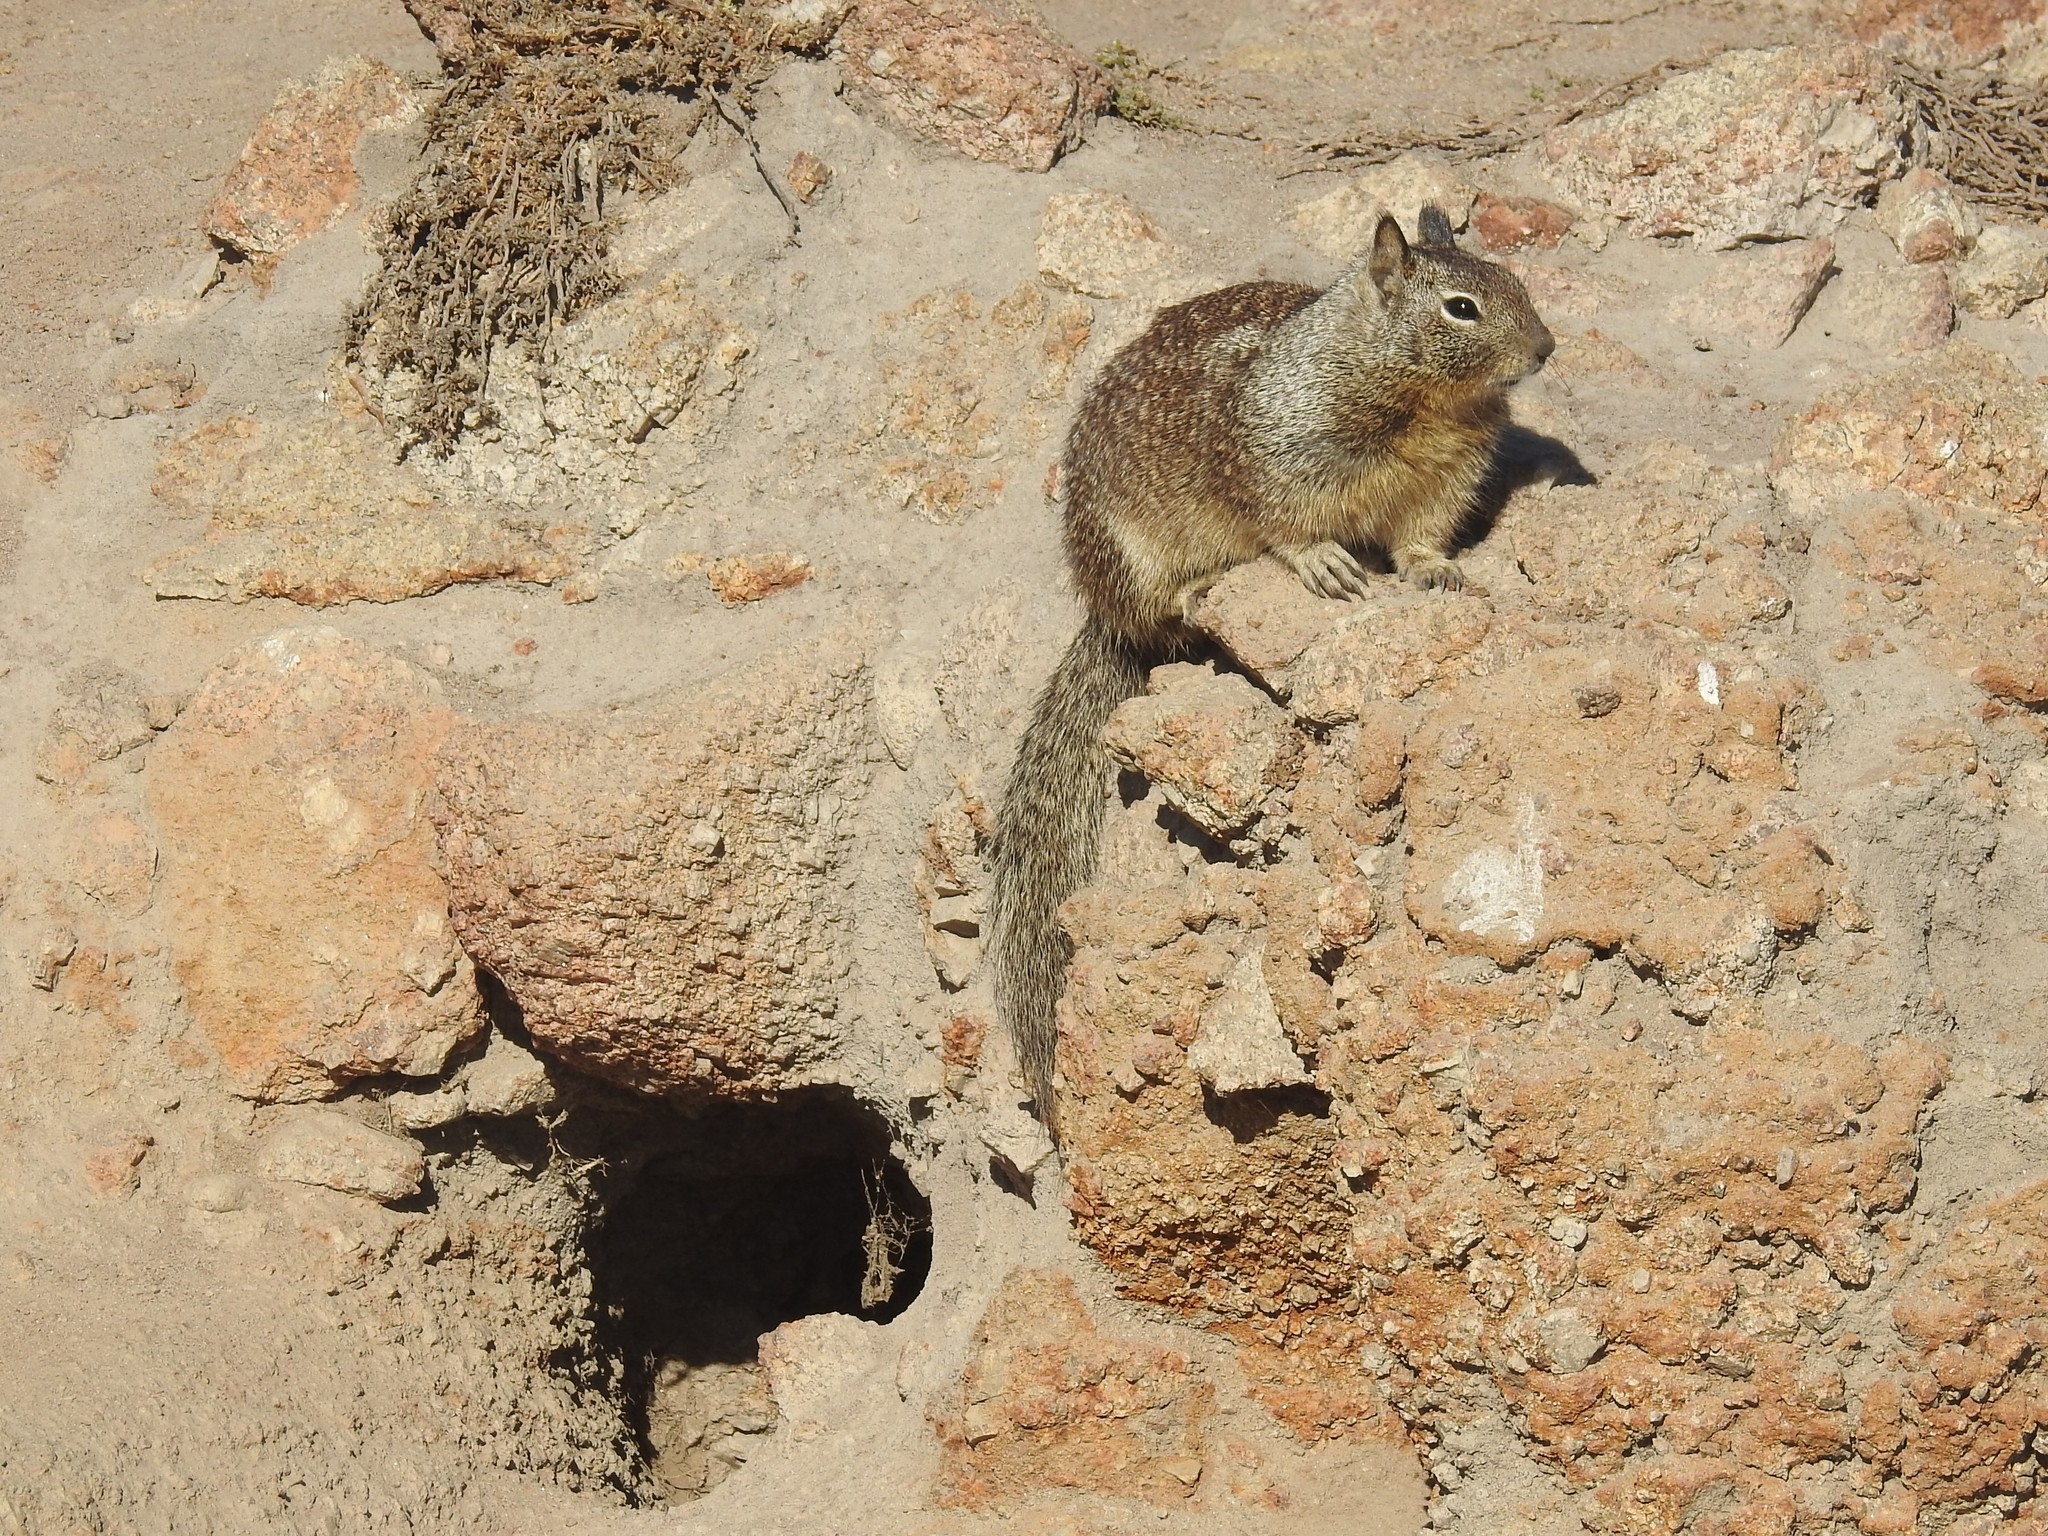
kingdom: Animalia
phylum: Chordata
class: Mammalia
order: Rodentia
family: Sciuridae
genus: Otospermophilus
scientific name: Otospermophilus beecheyi
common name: California ground squirrel
